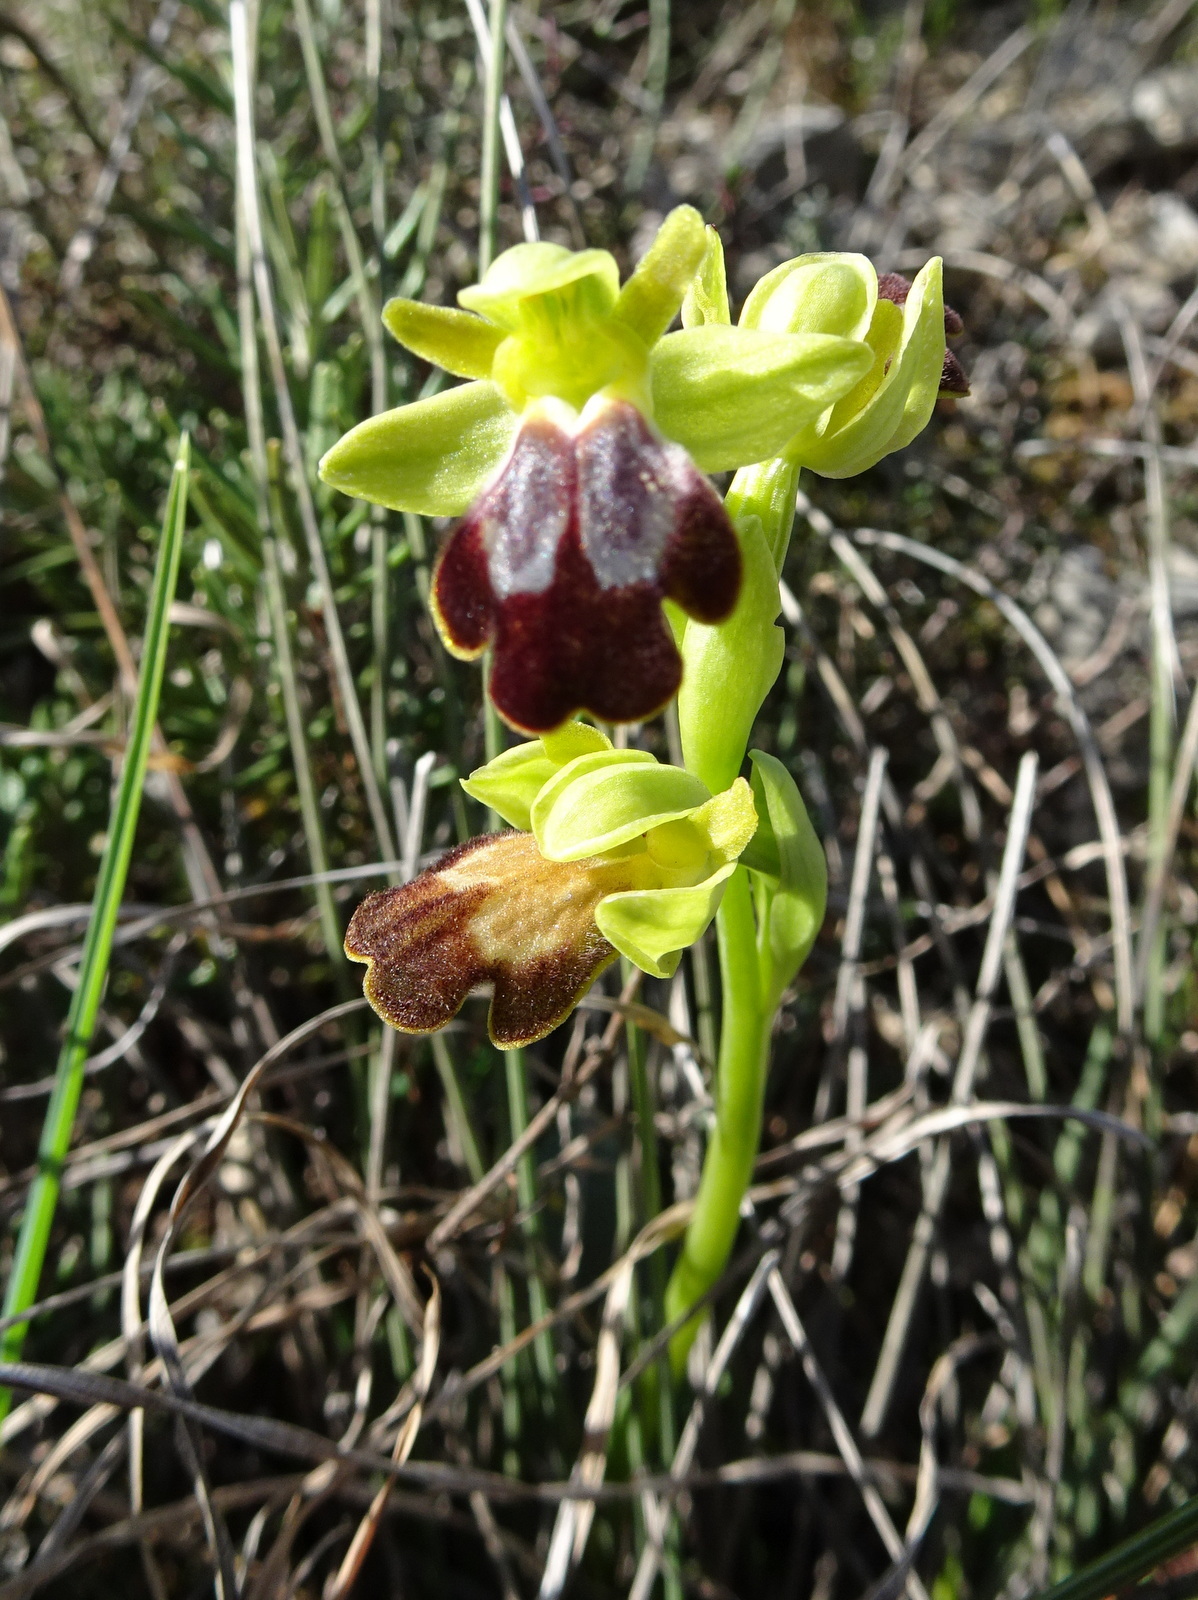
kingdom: Plantae
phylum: Tracheophyta
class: Liliopsida
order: Asparagales
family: Orchidaceae
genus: Ophrys
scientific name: Ophrys fusca
